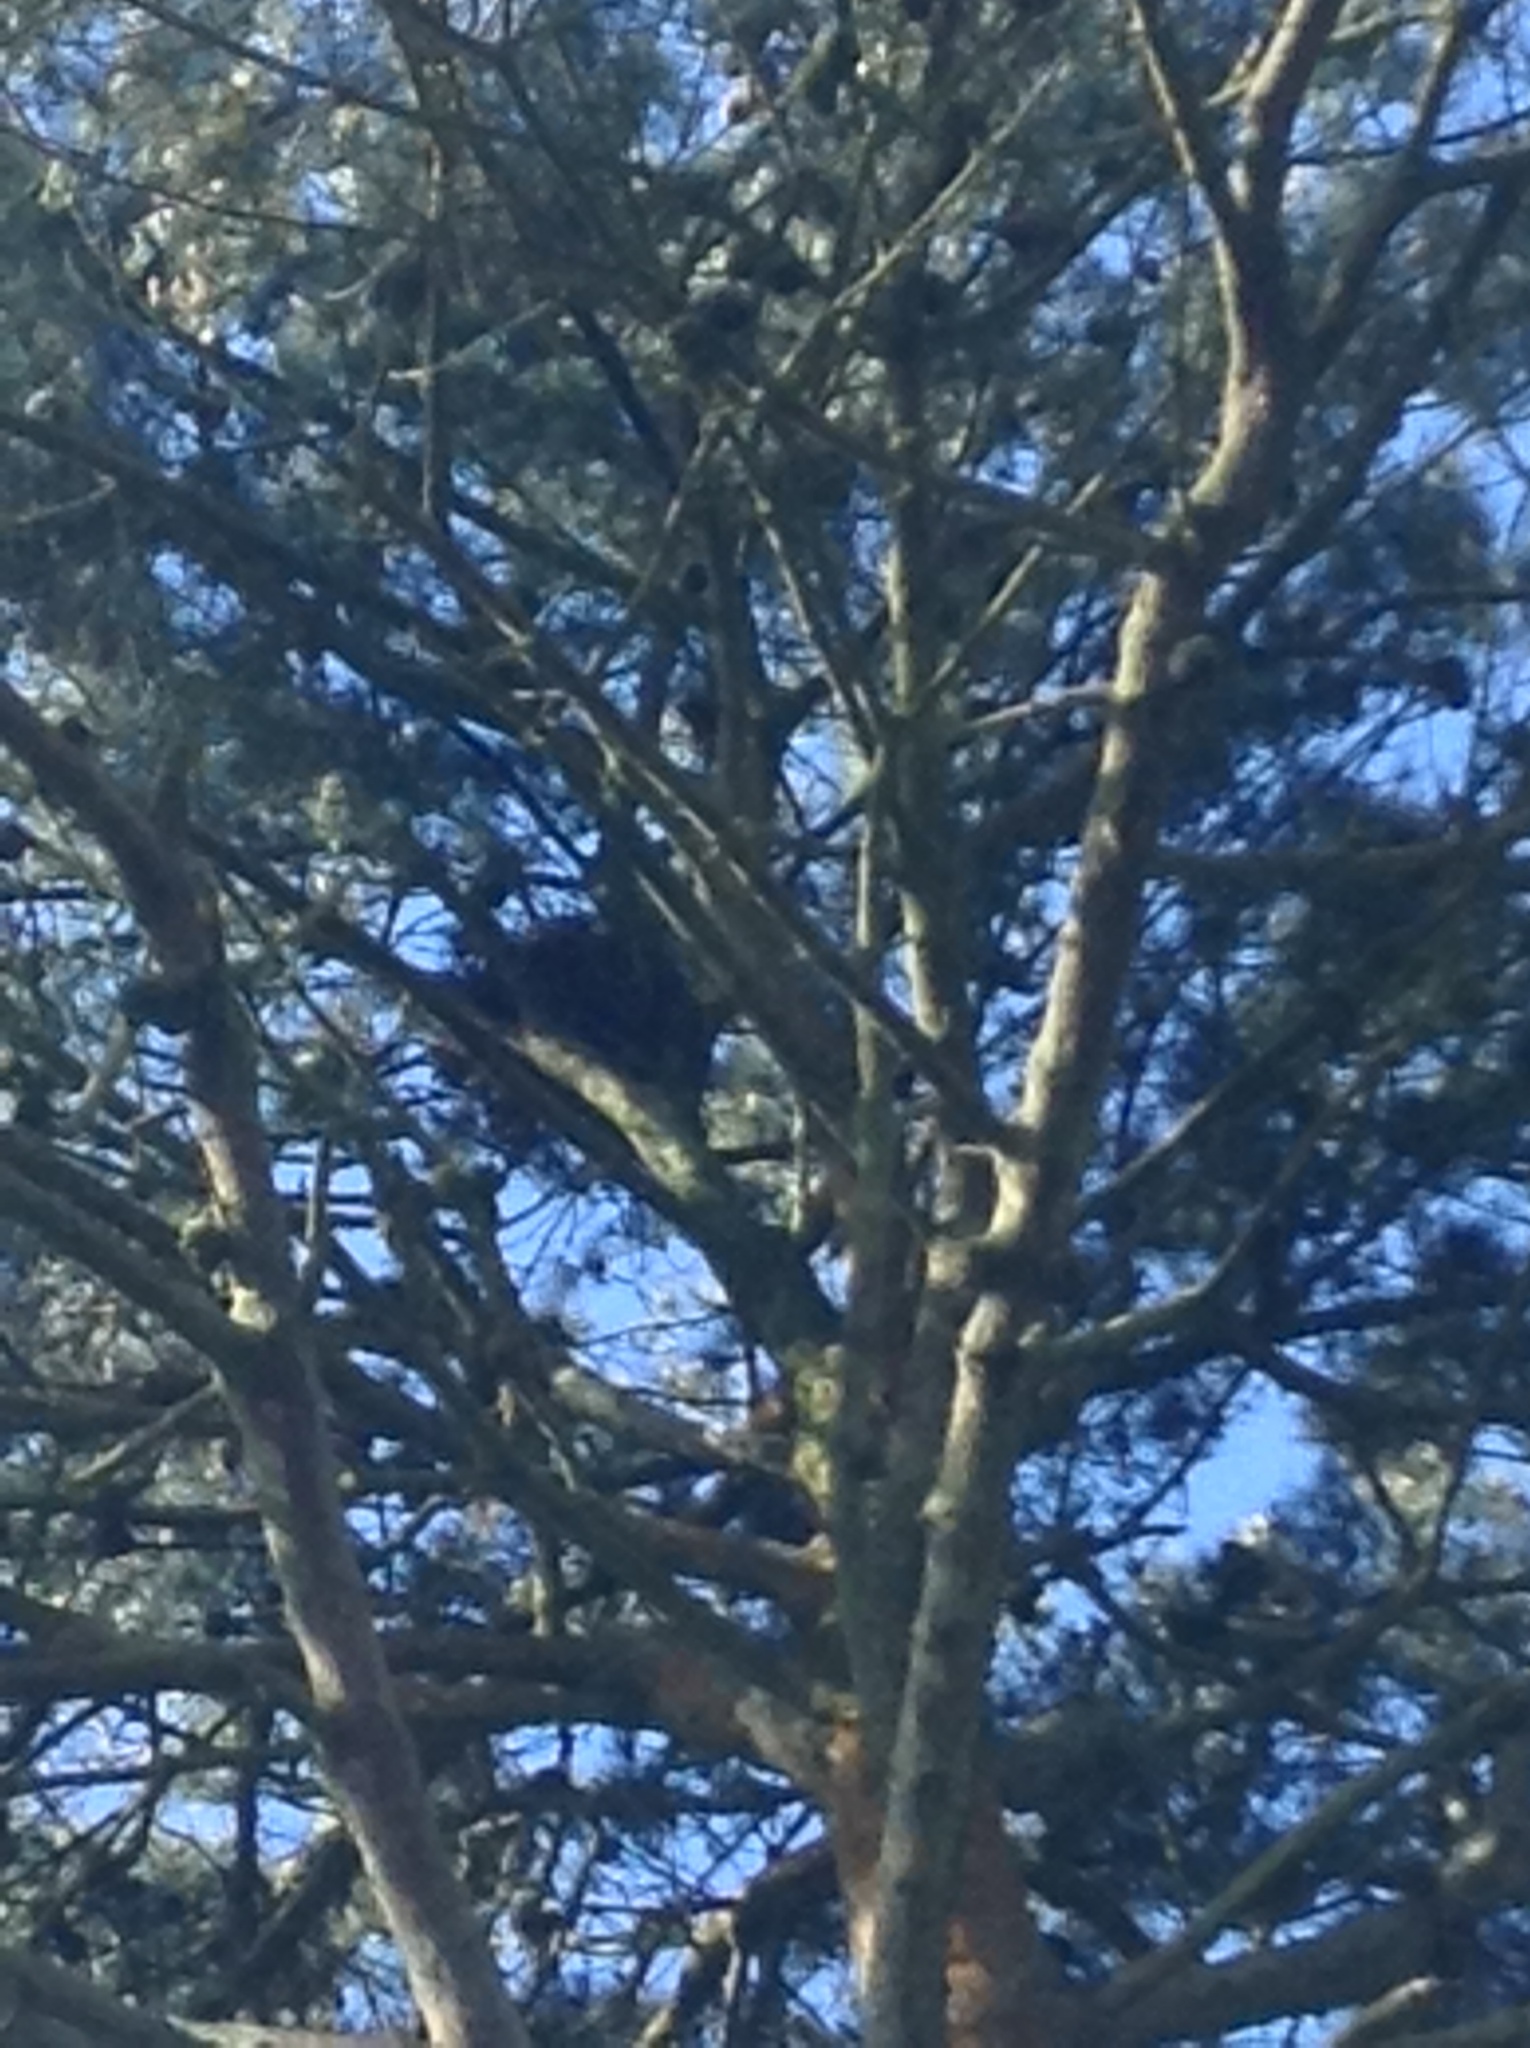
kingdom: Animalia
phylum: Chordata
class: Aves
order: Passeriformes
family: Corvidae
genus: Corvus
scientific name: Corvus corax
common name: Common raven
